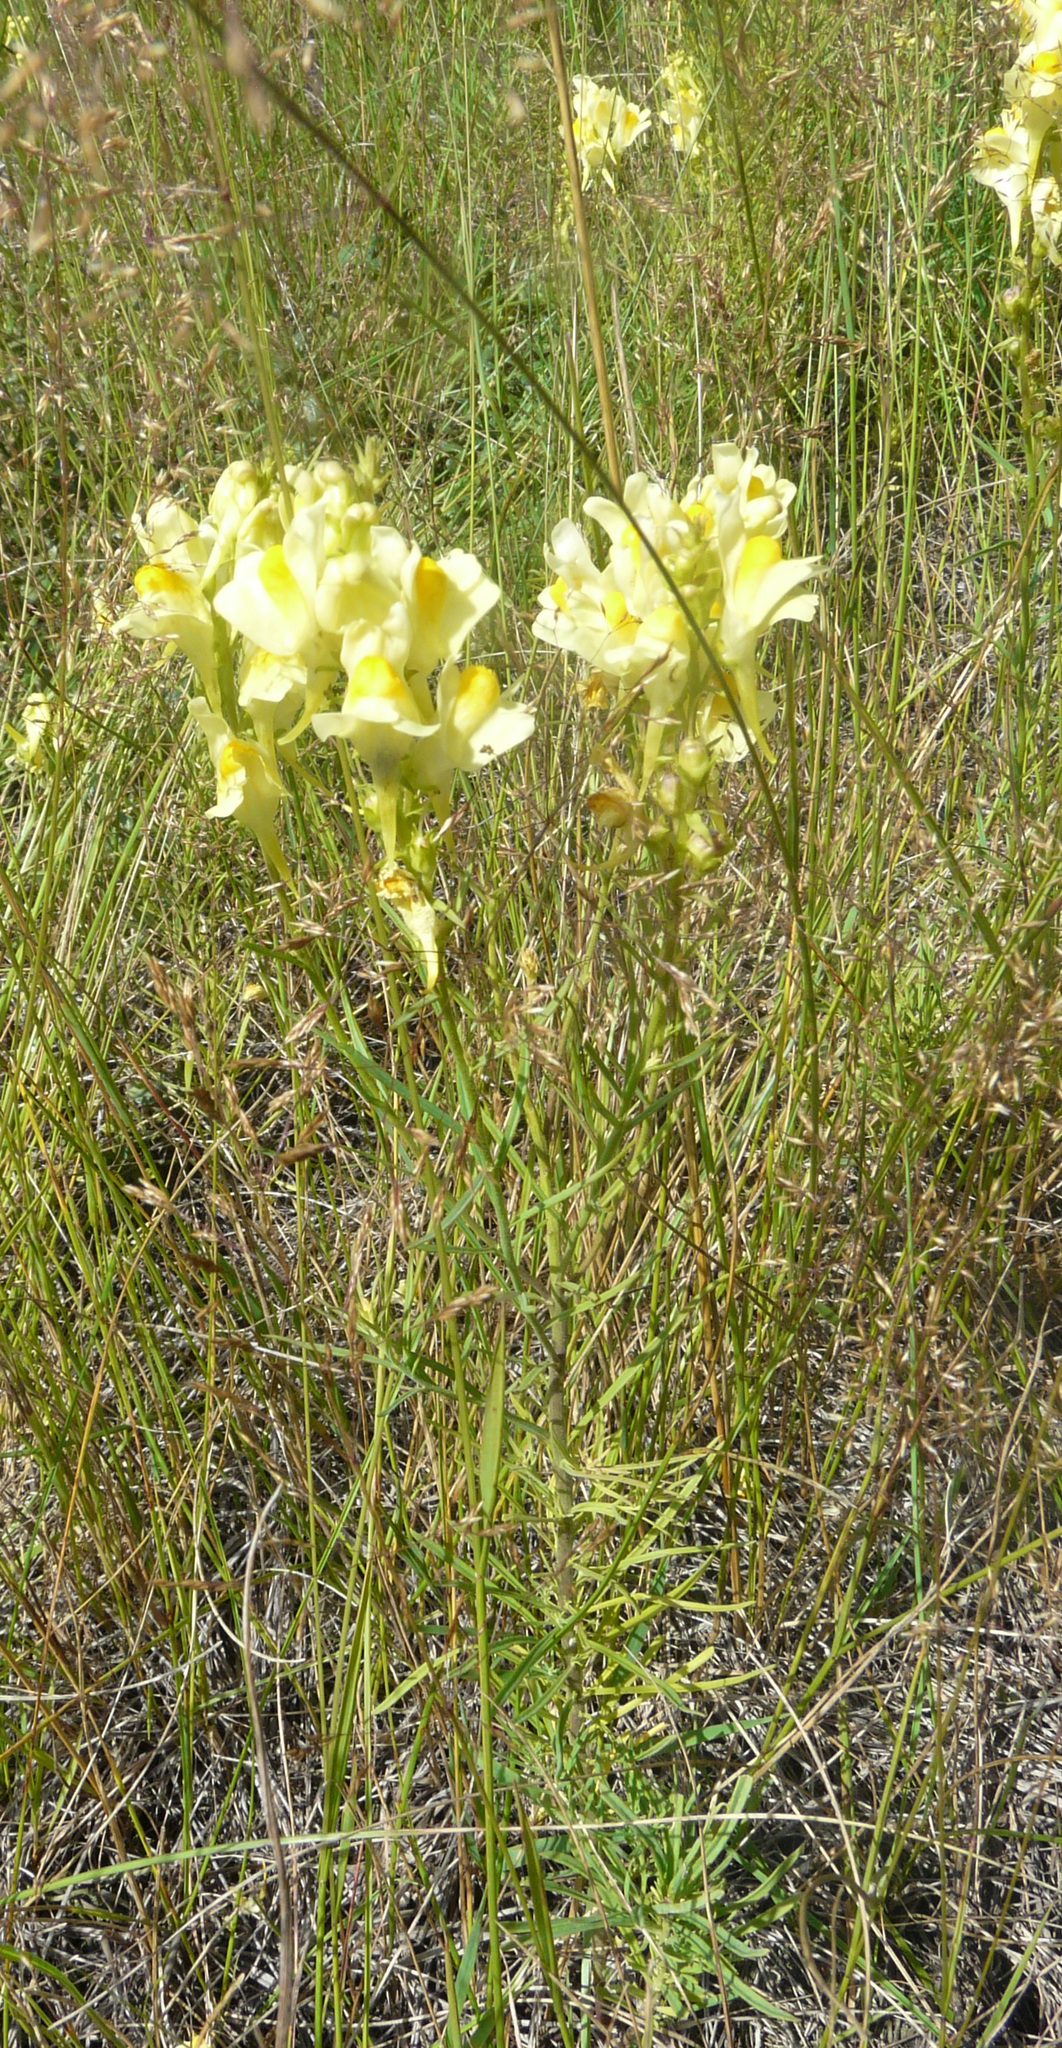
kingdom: Plantae
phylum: Tracheophyta
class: Magnoliopsida
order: Lamiales
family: Plantaginaceae
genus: Linaria
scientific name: Linaria vulgaris
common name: Butter and eggs
